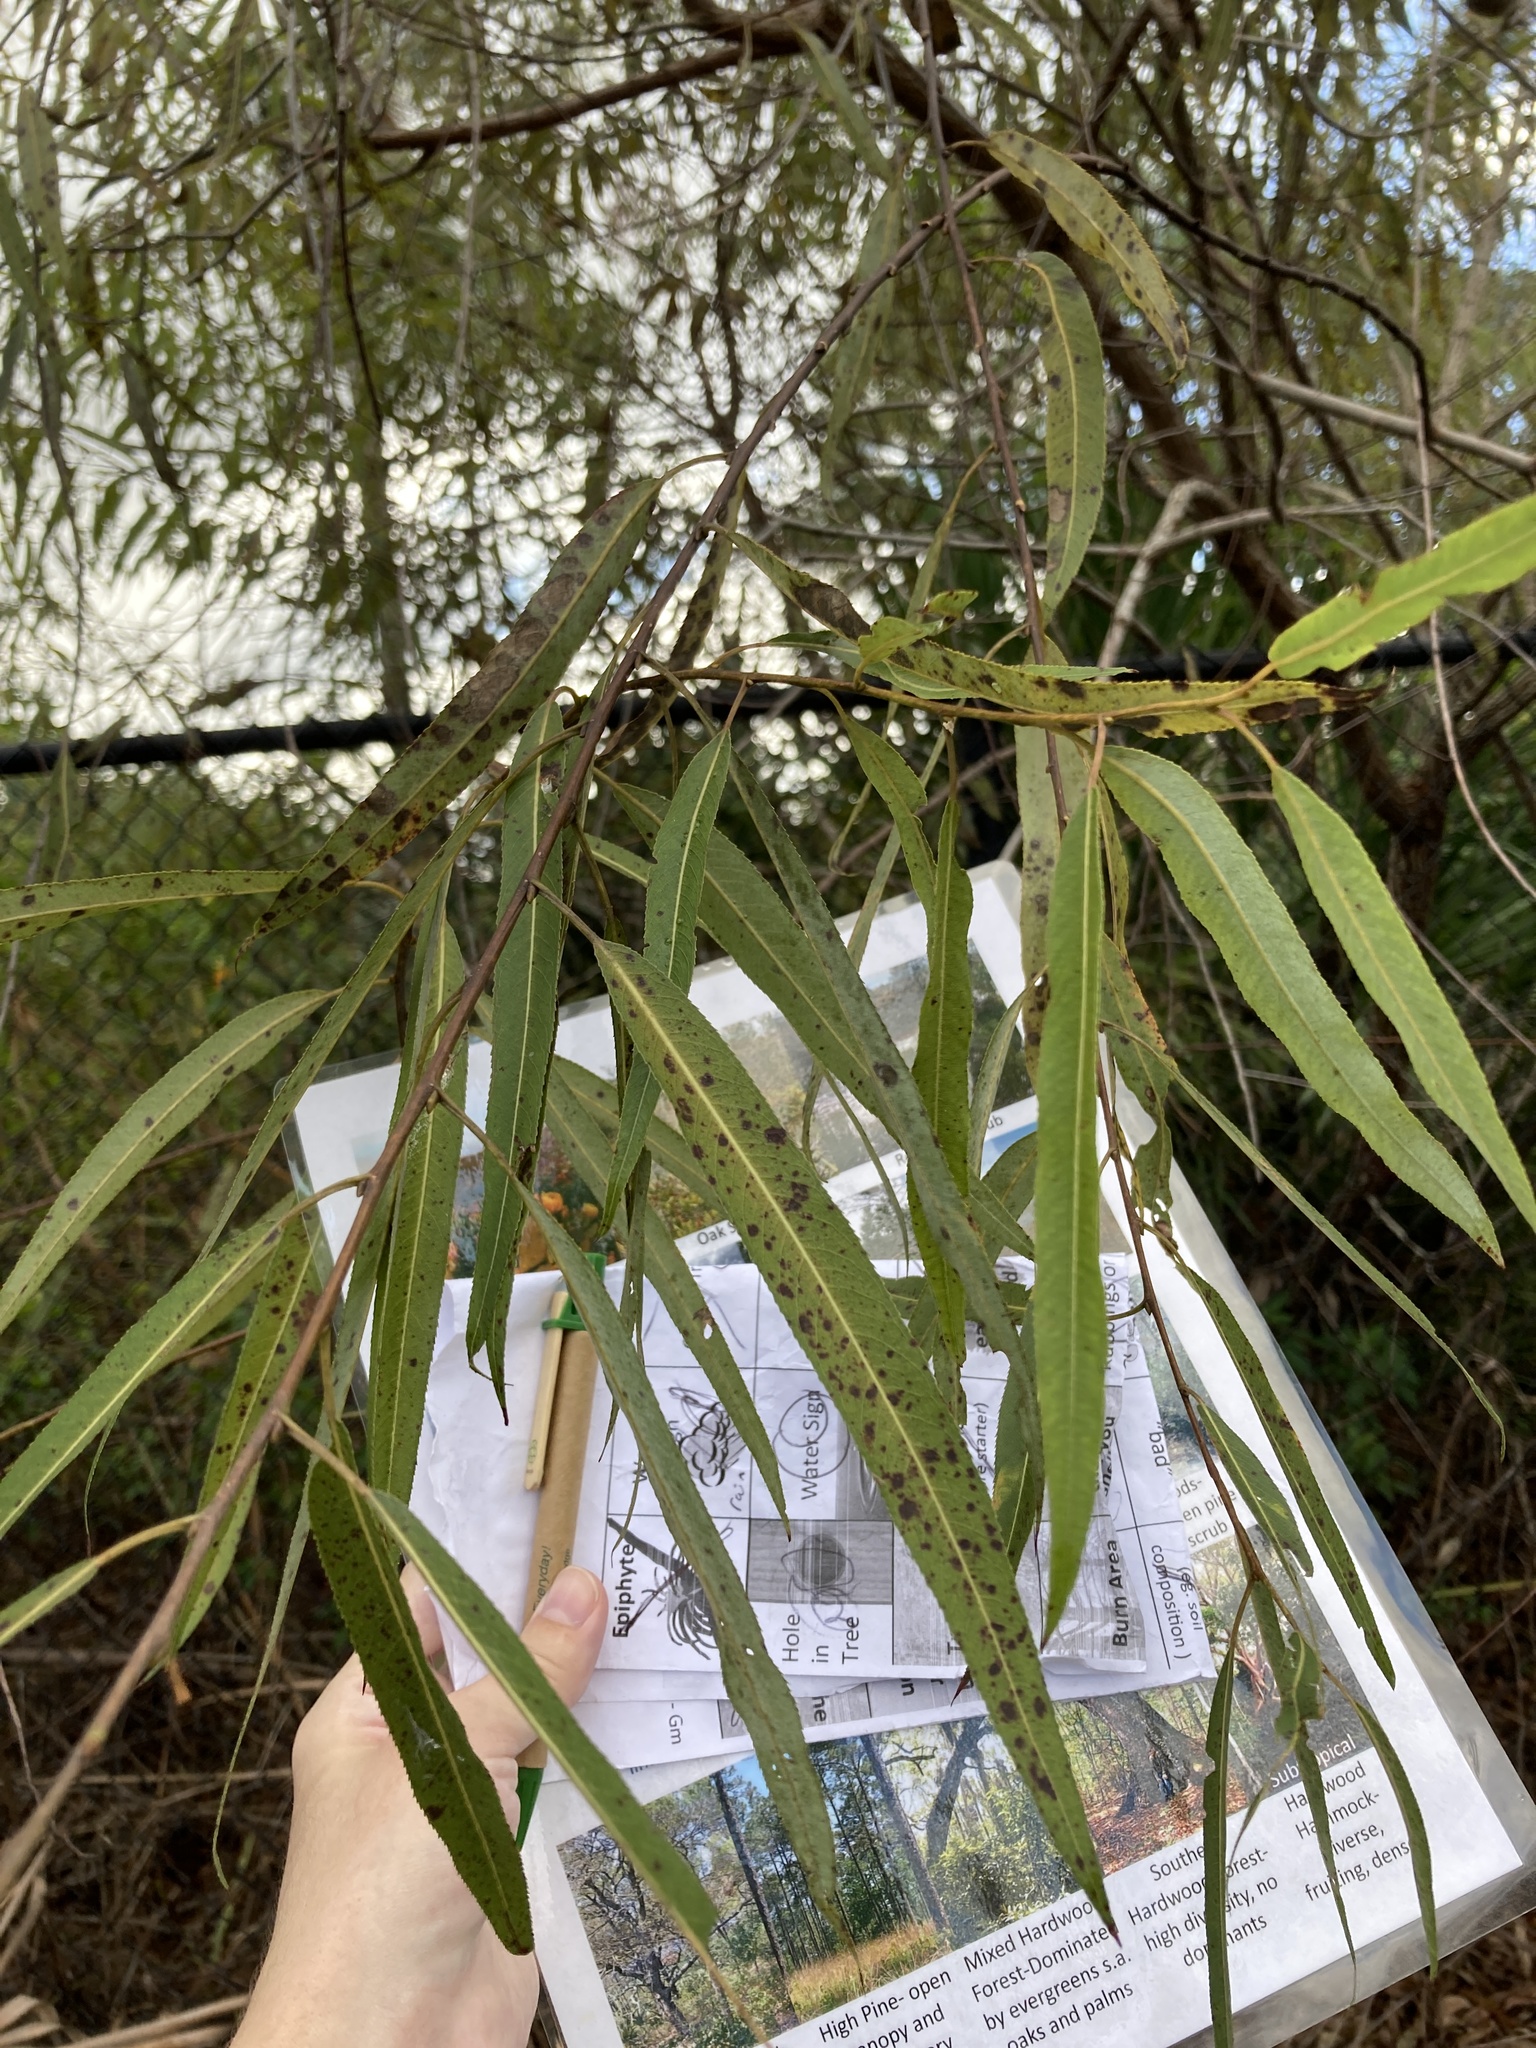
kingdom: Plantae
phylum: Tracheophyta
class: Magnoliopsida
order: Malpighiales
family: Salicaceae
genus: Salix
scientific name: Salix caroliniana
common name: Carolina willow
